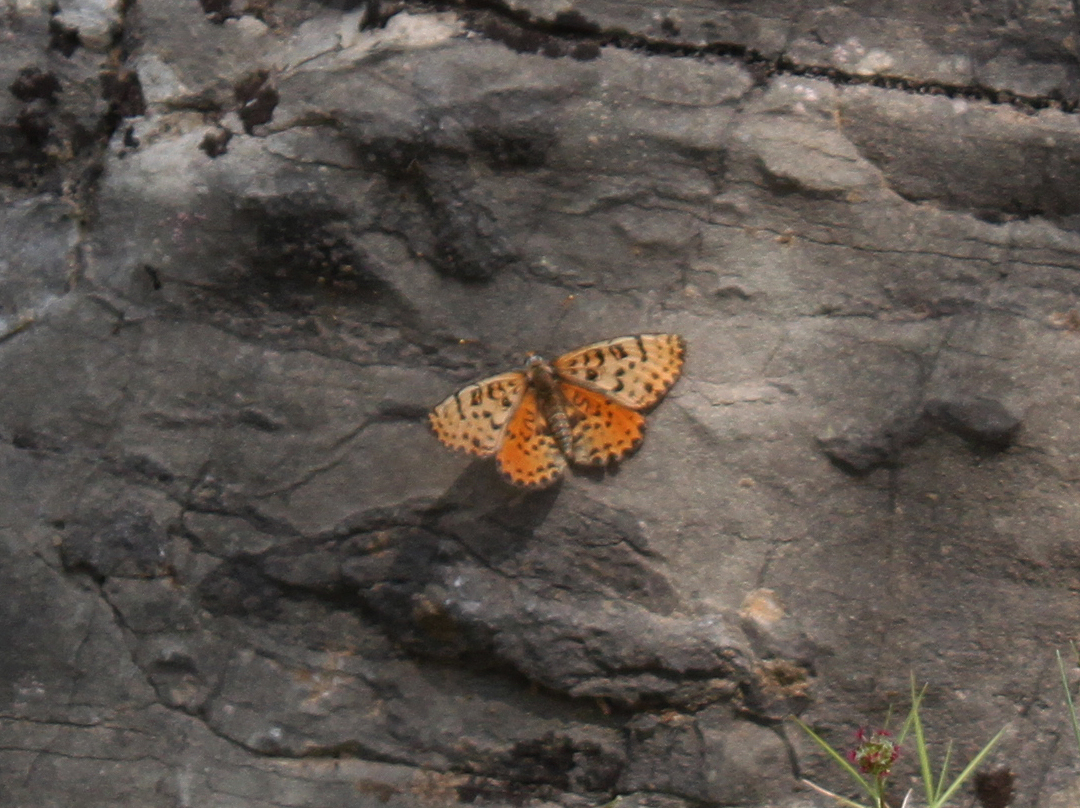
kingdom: Animalia
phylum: Arthropoda
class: Insecta
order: Lepidoptera
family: Nymphalidae
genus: Melitaea
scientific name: Melitaea didyma
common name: Spotted fritillary
